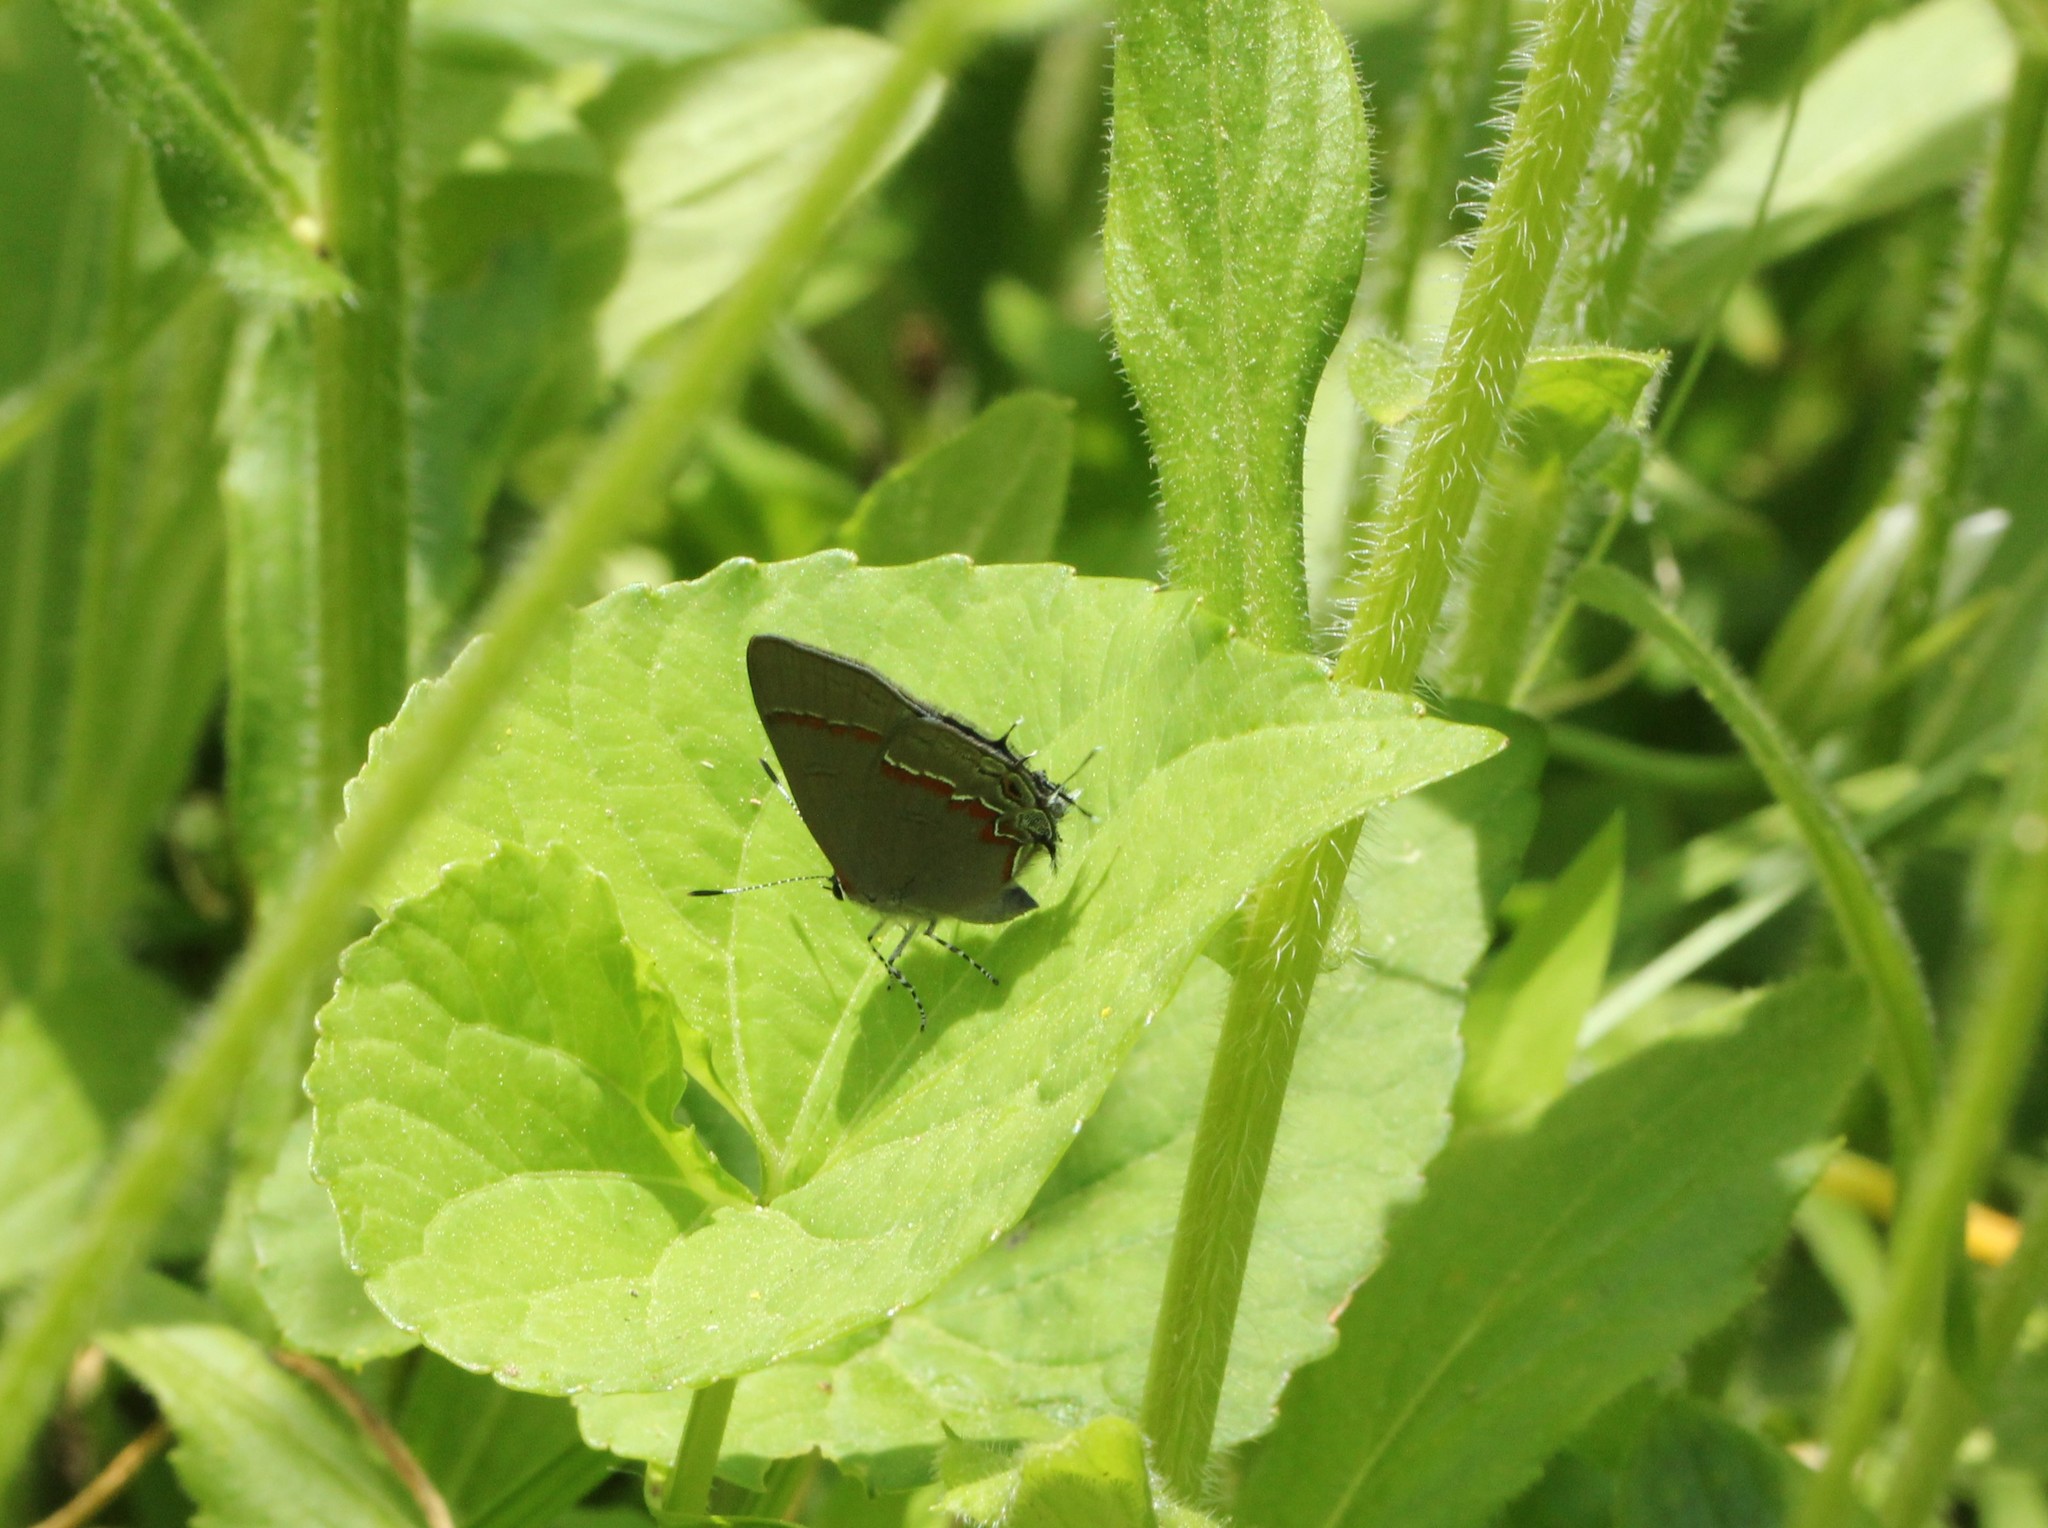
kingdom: Animalia
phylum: Arthropoda
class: Insecta
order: Lepidoptera
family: Lycaenidae
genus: Calycopis
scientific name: Calycopis cecrops
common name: Red-banded hairstreak
